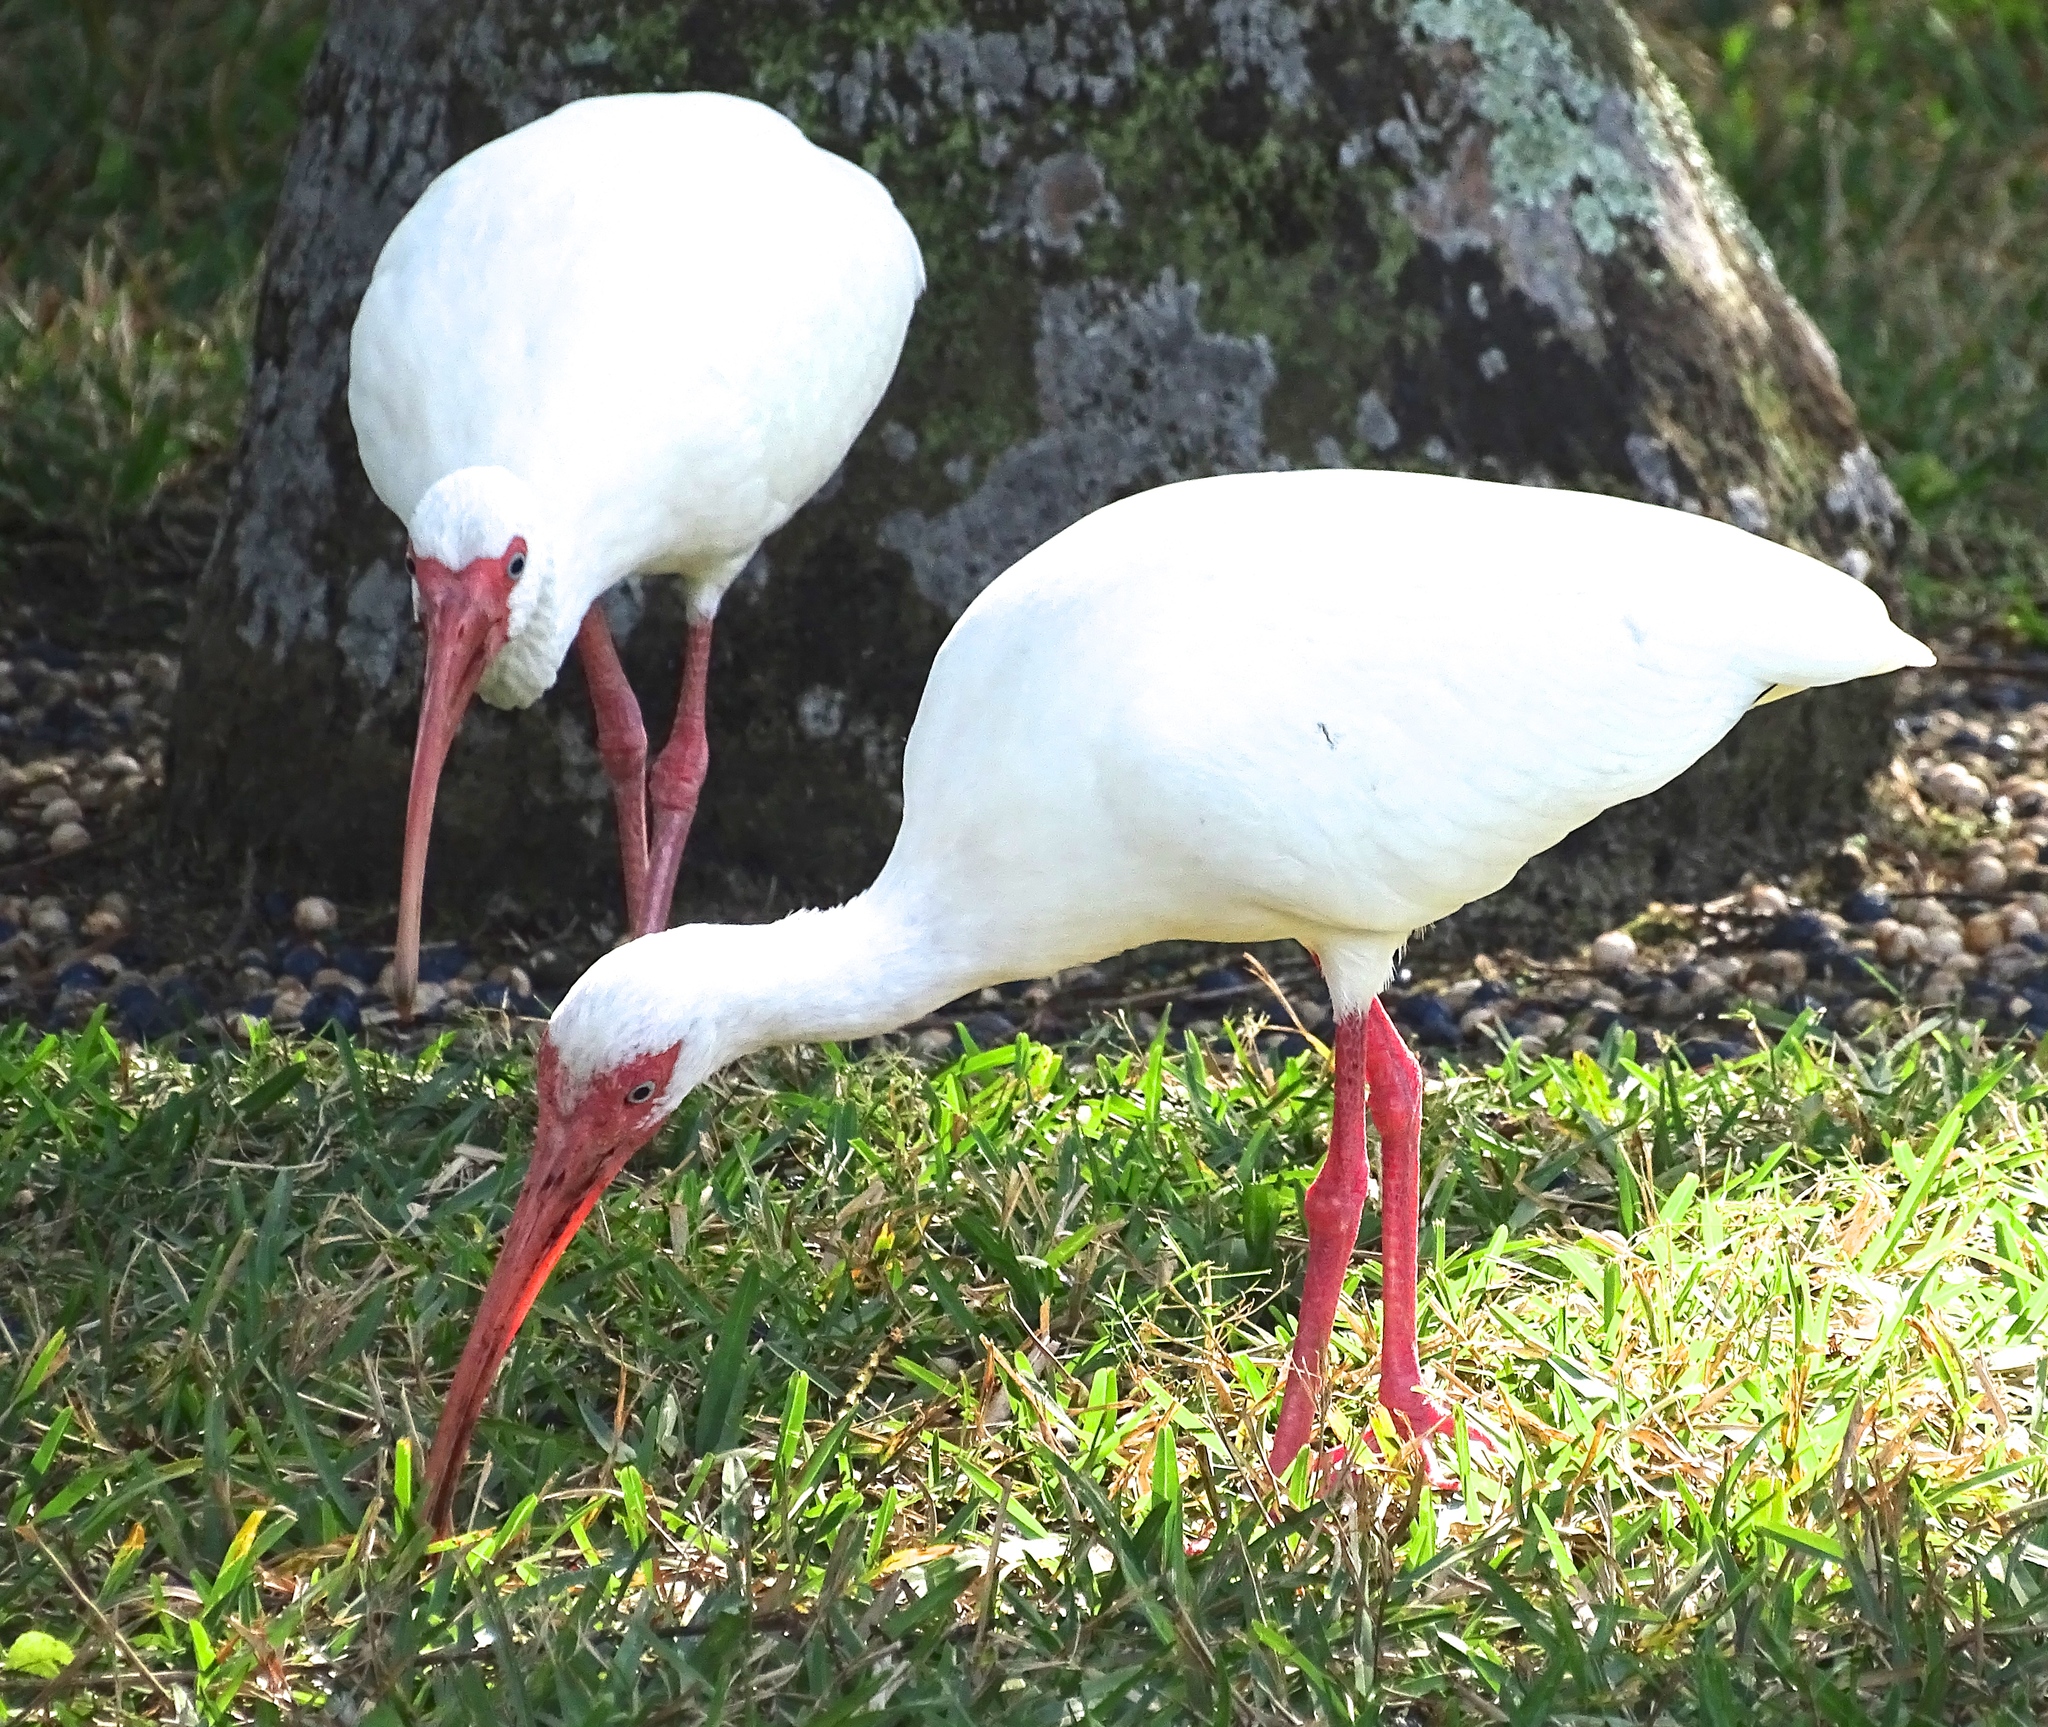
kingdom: Animalia
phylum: Chordata
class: Aves
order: Pelecaniformes
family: Threskiornithidae
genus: Eudocimus
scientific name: Eudocimus albus
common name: White ibis
